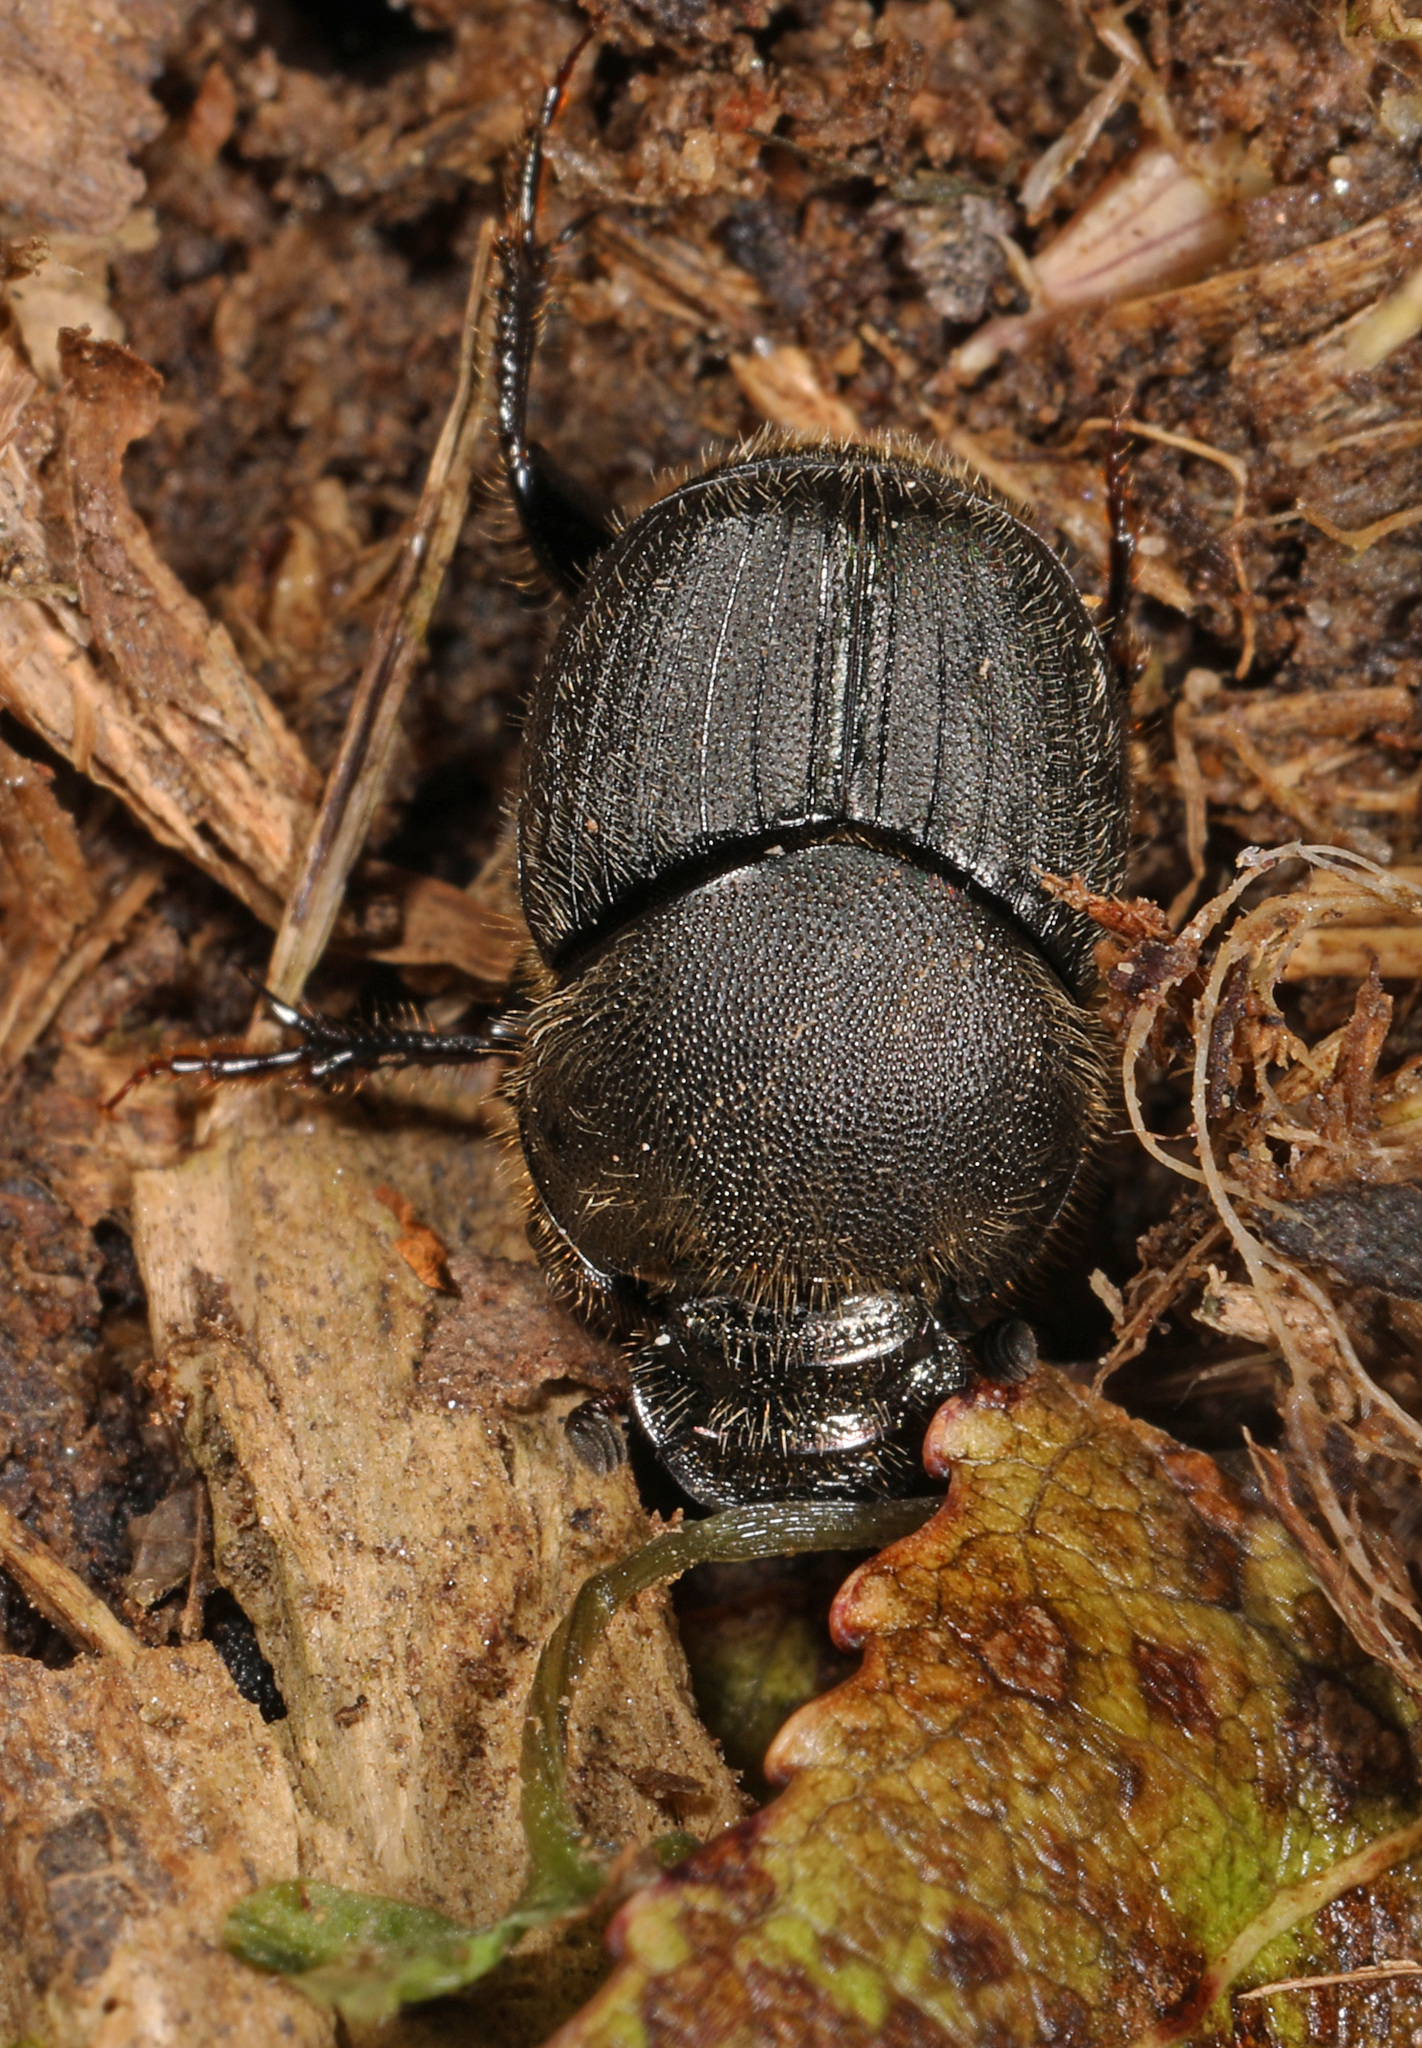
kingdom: Animalia
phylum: Arthropoda
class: Insecta
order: Coleoptera
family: Scarabaeidae
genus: Onthophagus
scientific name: Onthophagus hecate
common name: Scooped scarab
